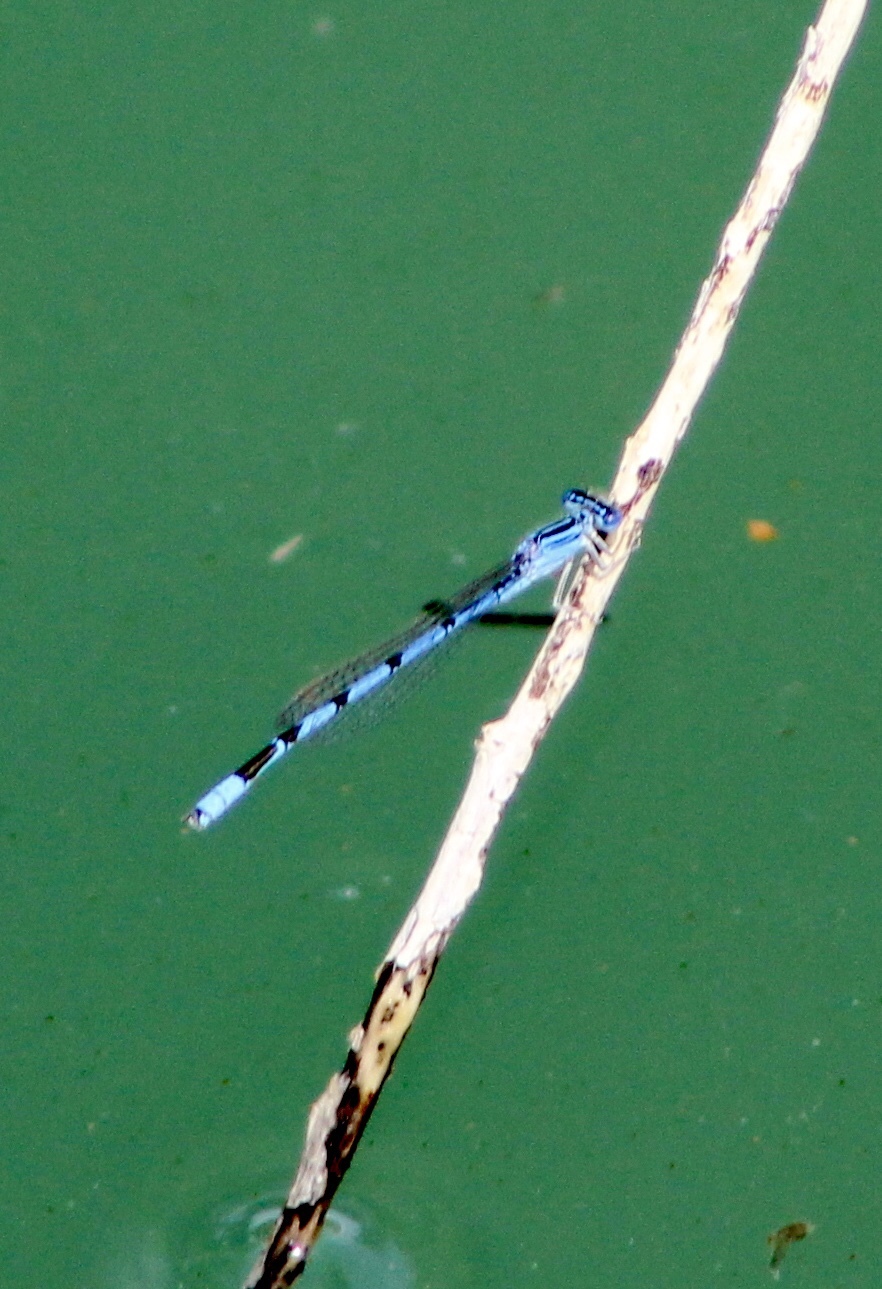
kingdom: Animalia
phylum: Arthropoda
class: Insecta
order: Odonata
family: Coenagrionidae
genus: Enallagma
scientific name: Enallagma basidens
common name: Double-striped bluet
